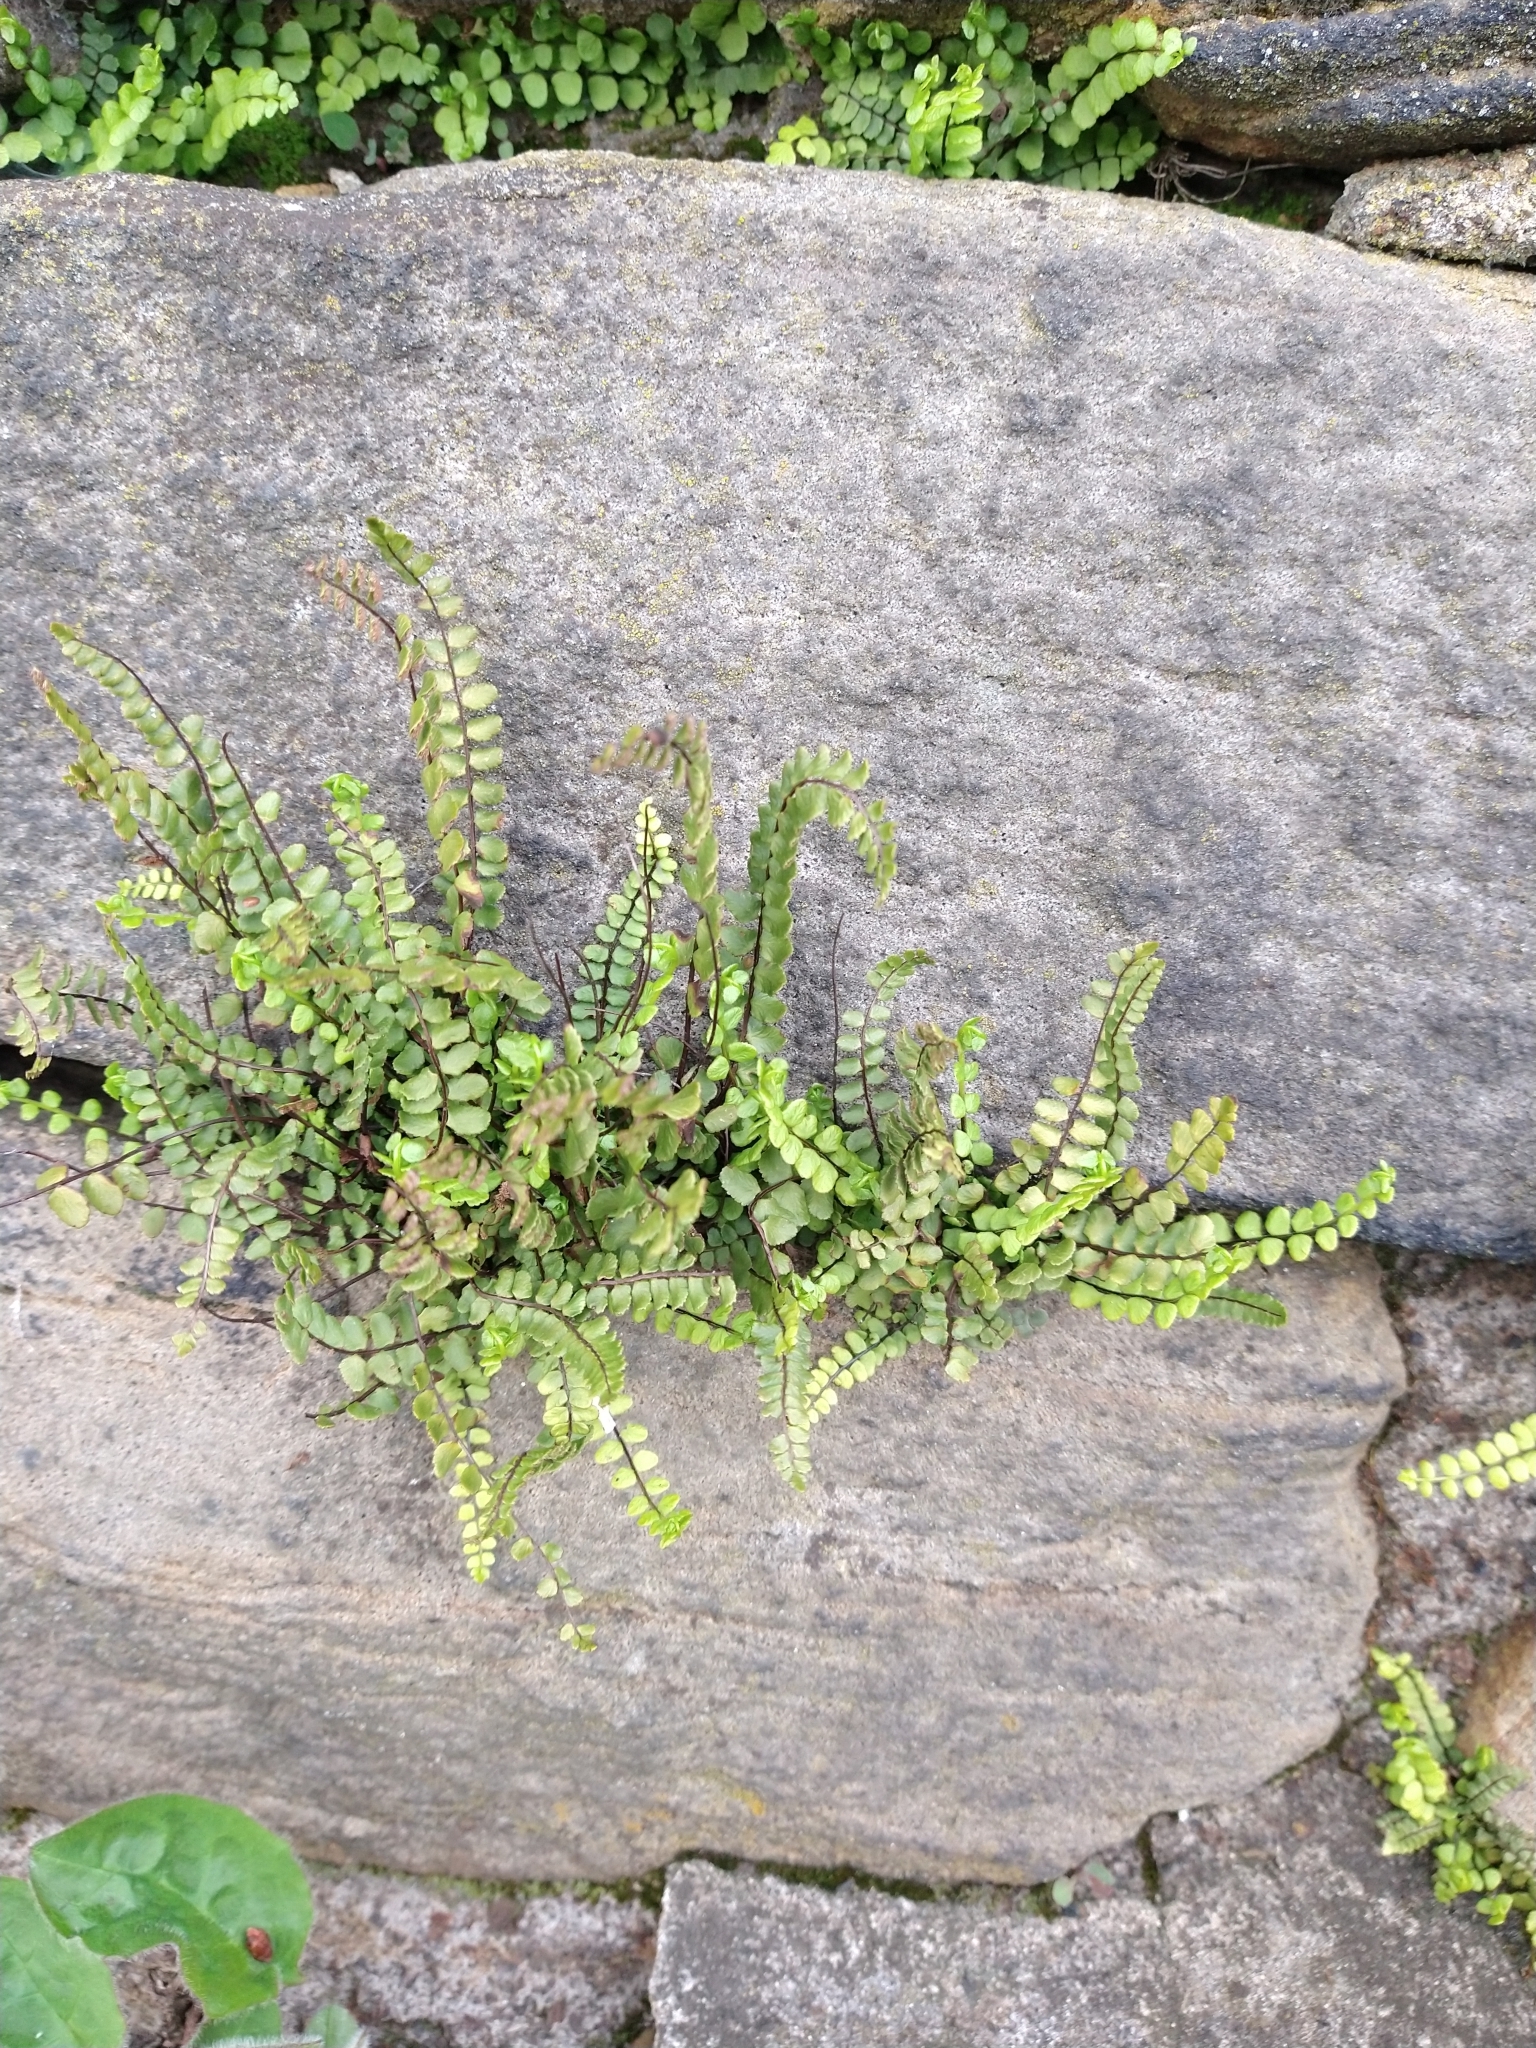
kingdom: Plantae
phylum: Tracheophyta
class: Polypodiopsida
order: Polypodiales
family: Aspleniaceae
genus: Asplenium
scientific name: Asplenium trichomanes
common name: Maidenhair spleenwort
